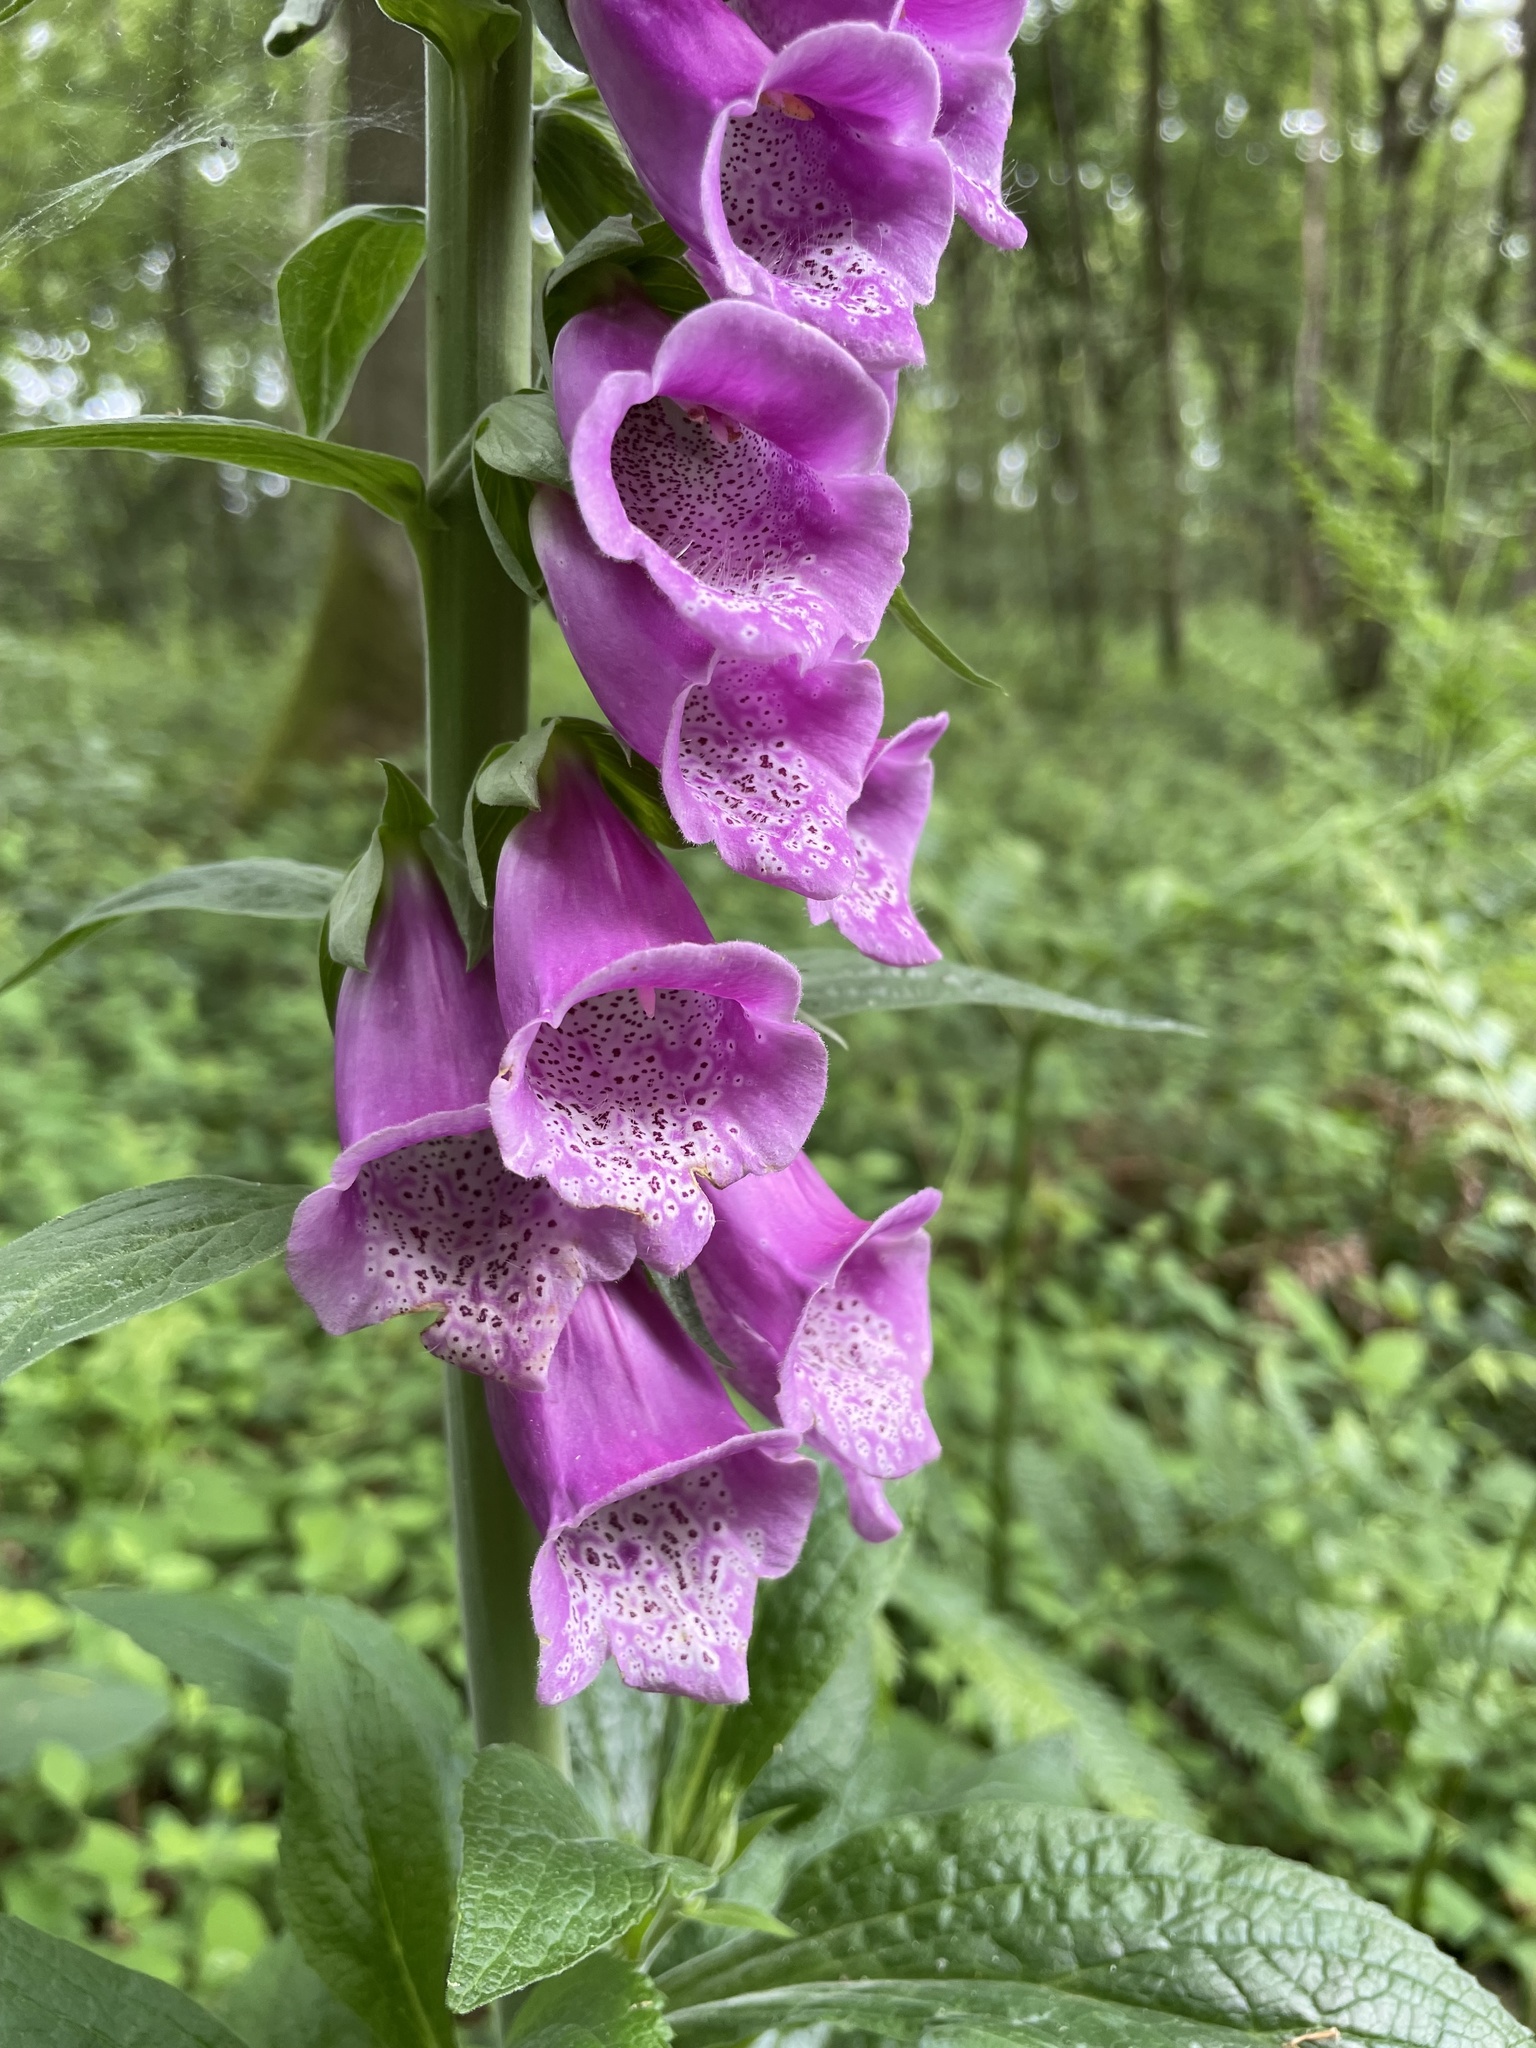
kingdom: Plantae
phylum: Tracheophyta
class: Magnoliopsida
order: Lamiales
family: Plantaginaceae
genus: Digitalis
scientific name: Digitalis purpurea
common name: Foxglove
